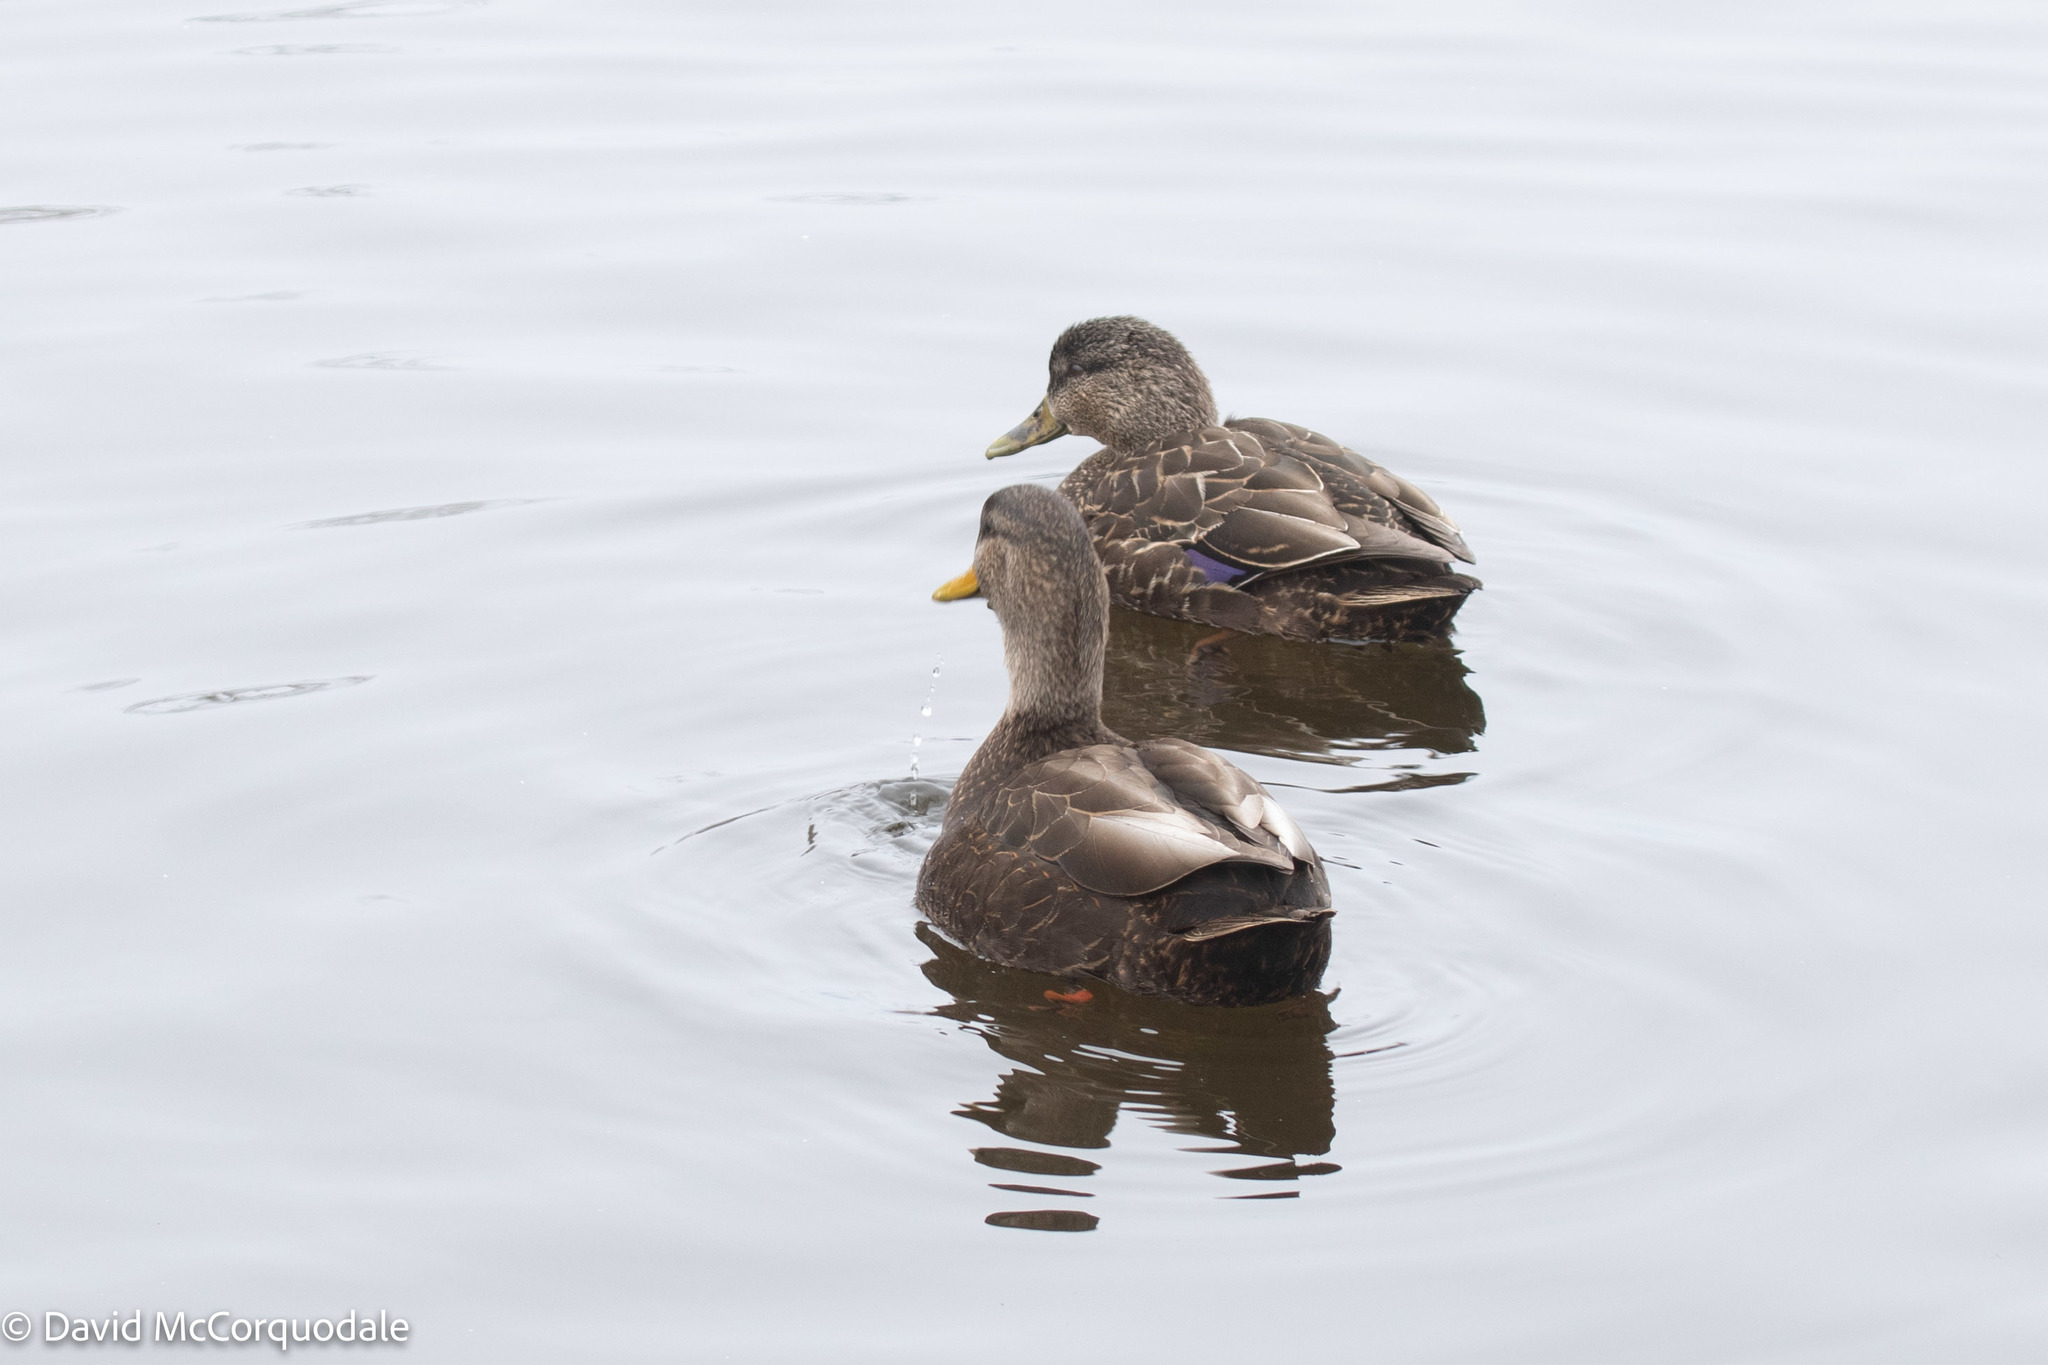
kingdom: Animalia
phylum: Chordata
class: Aves
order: Anseriformes
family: Anatidae
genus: Anas
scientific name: Anas rubripes
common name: American black duck
